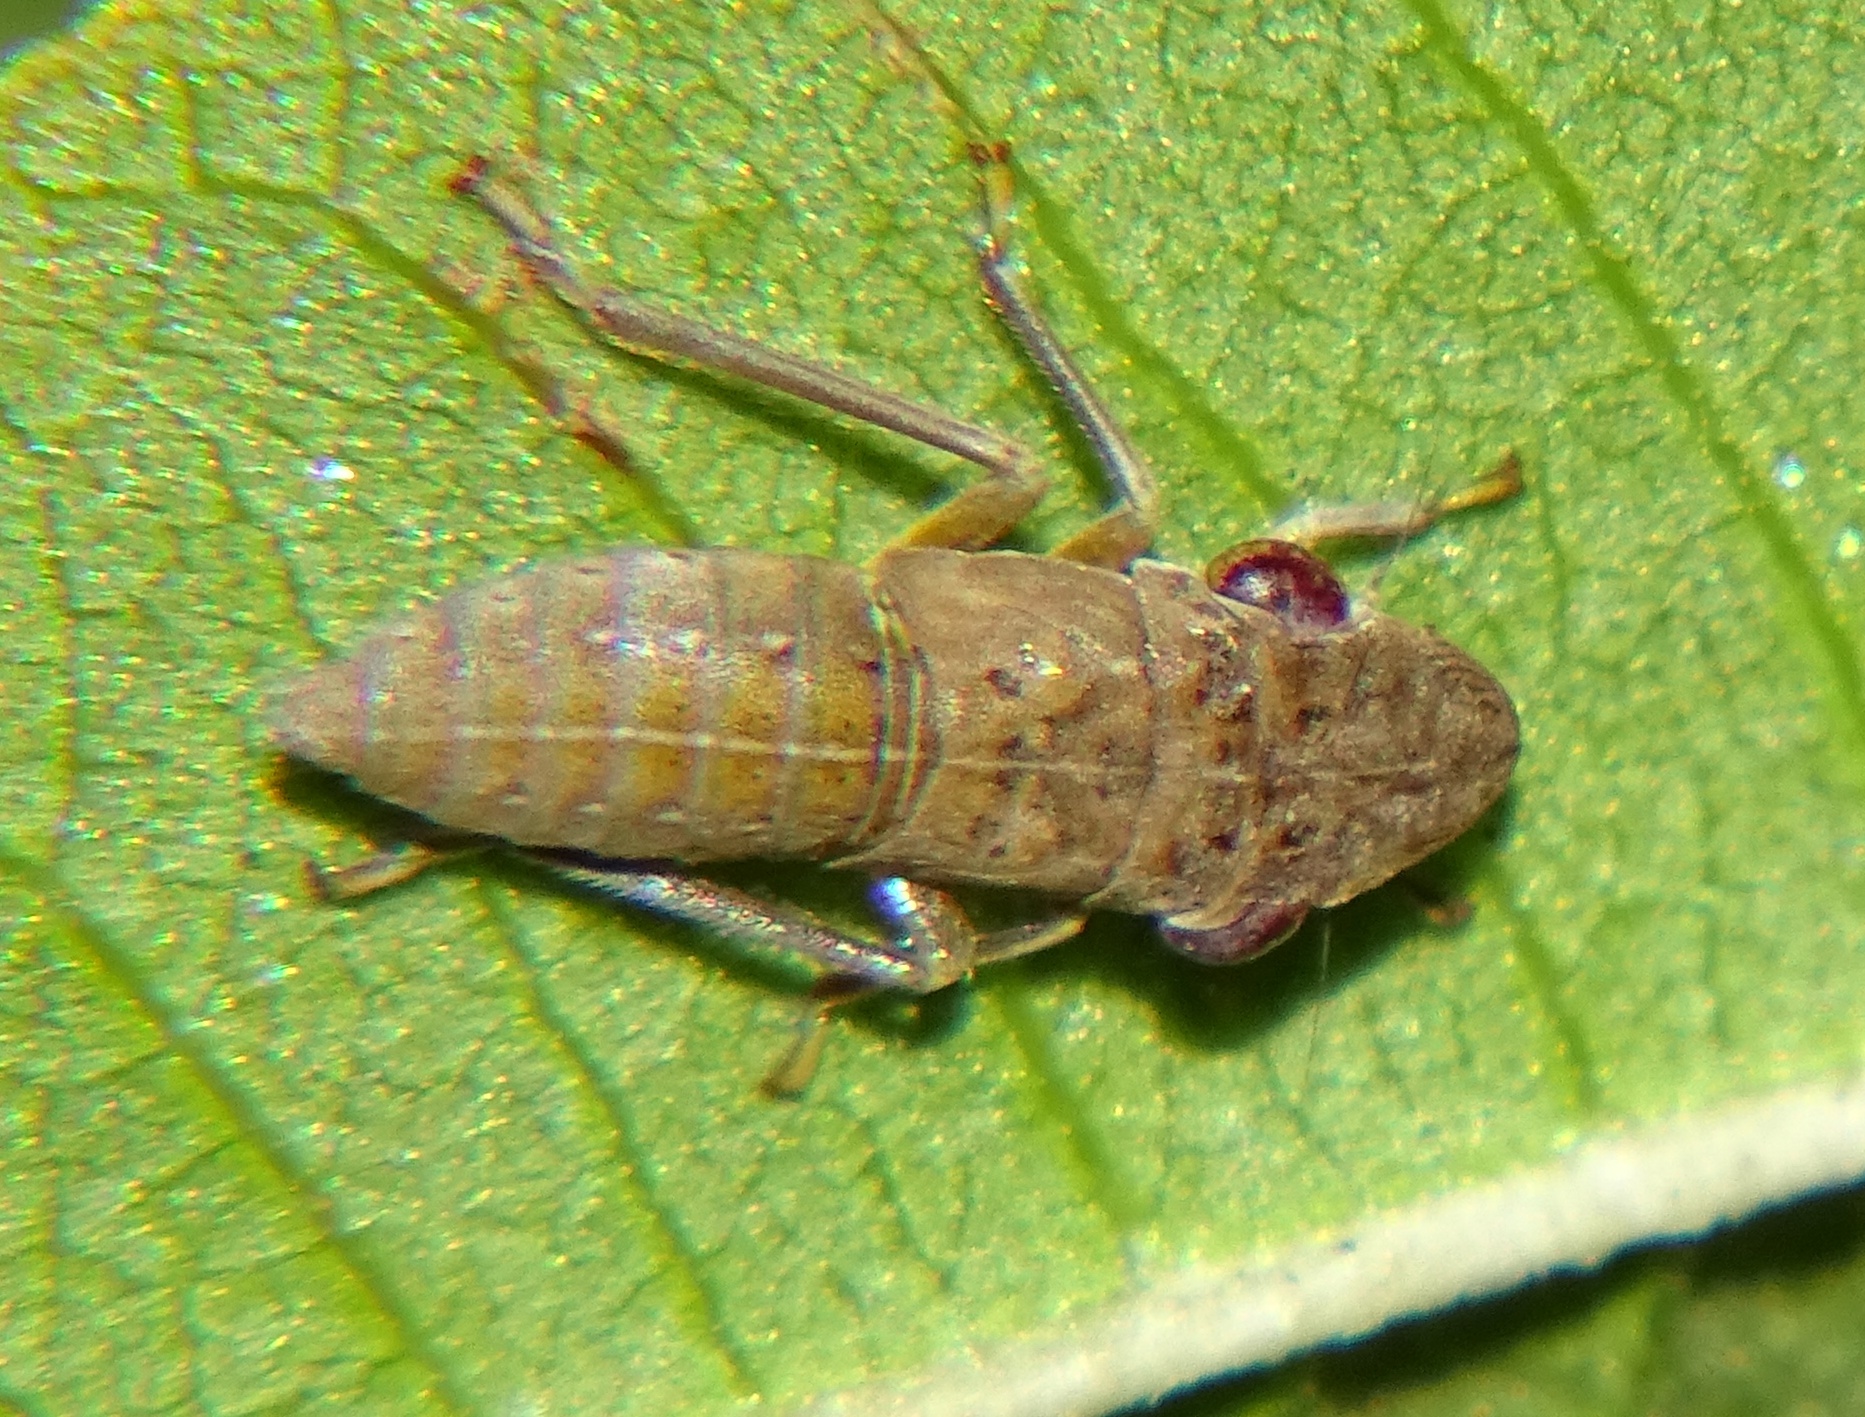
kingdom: Animalia
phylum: Arthropoda
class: Insecta
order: Hemiptera
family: Cicadellidae
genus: Homalodisca
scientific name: Homalodisca
